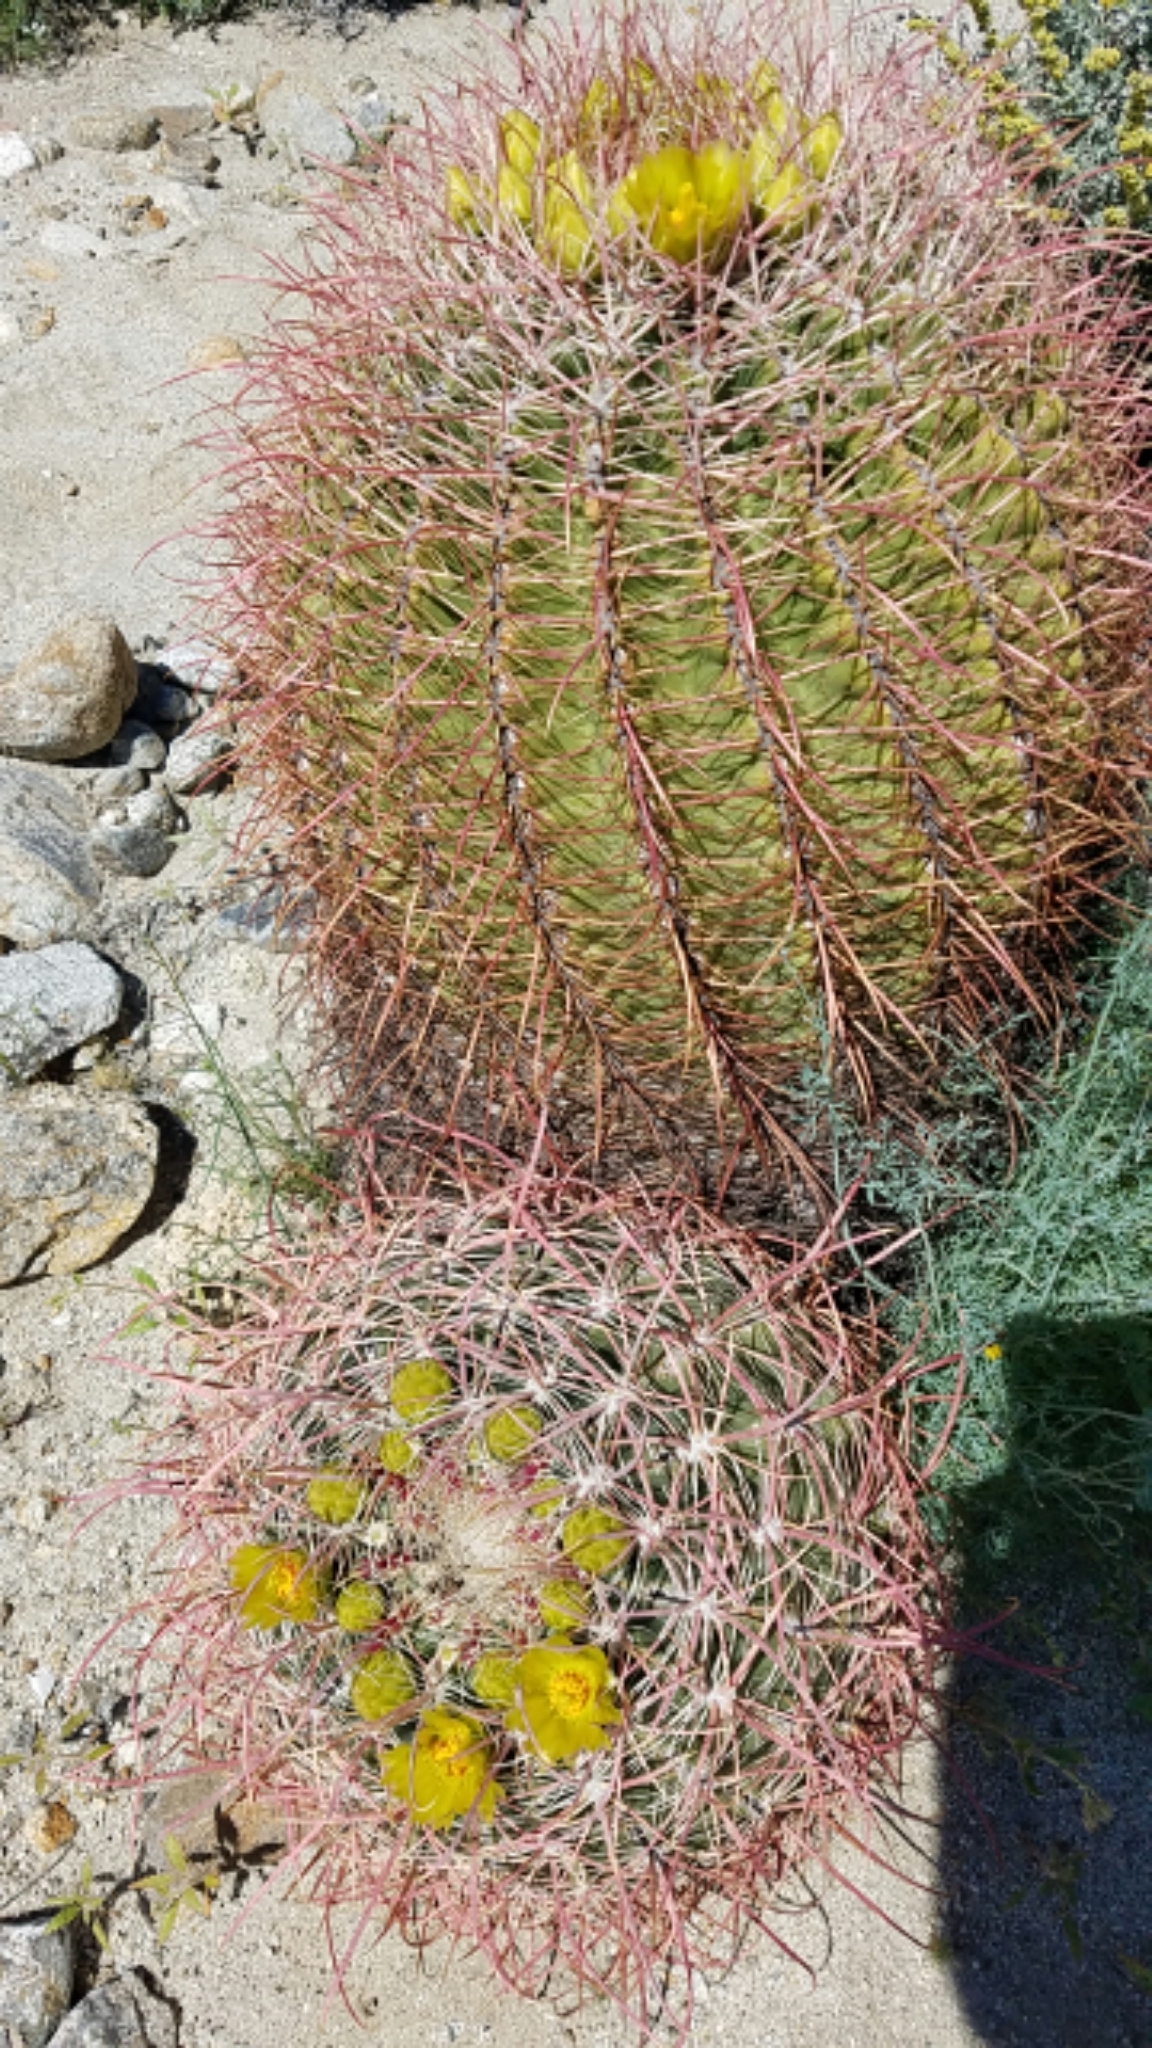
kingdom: Plantae
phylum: Tracheophyta
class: Magnoliopsida
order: Caryophyllales
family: Cactaceae
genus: Ferocactus
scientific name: Ferocactus cylindraceus
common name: California barrel cactus
